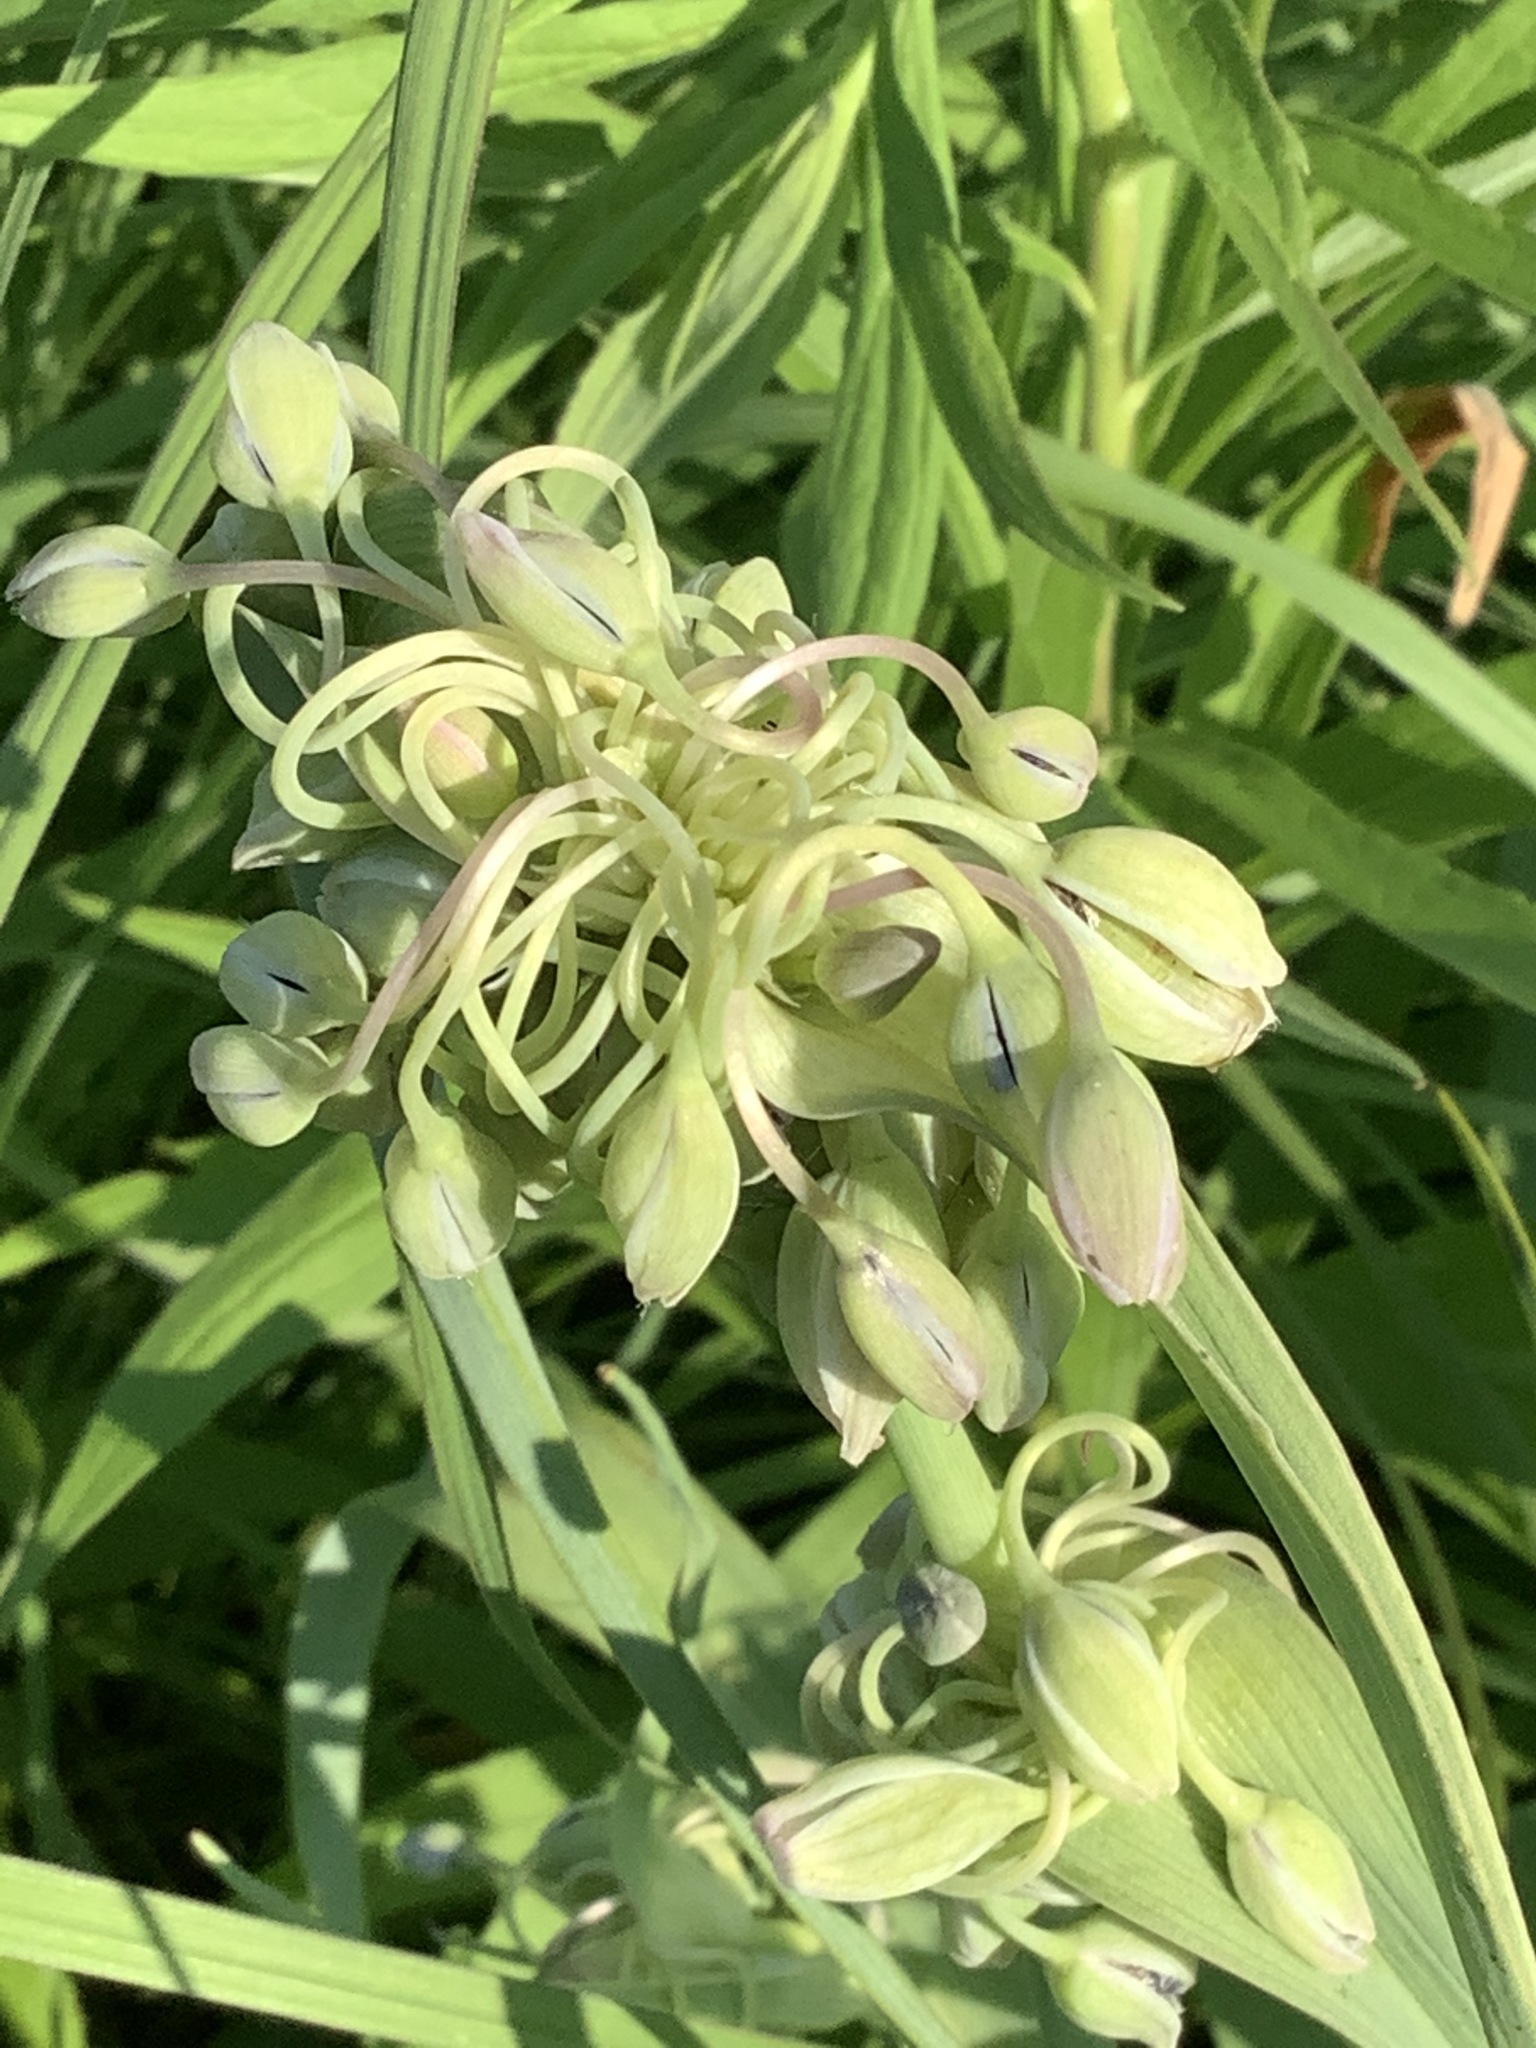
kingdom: Plantae
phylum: Tracheophyta
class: Liliopsida
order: Commelinales
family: Commelinaceae
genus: Tradescantia
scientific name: Tradescantia ohiensis
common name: Ohio spiderwort
